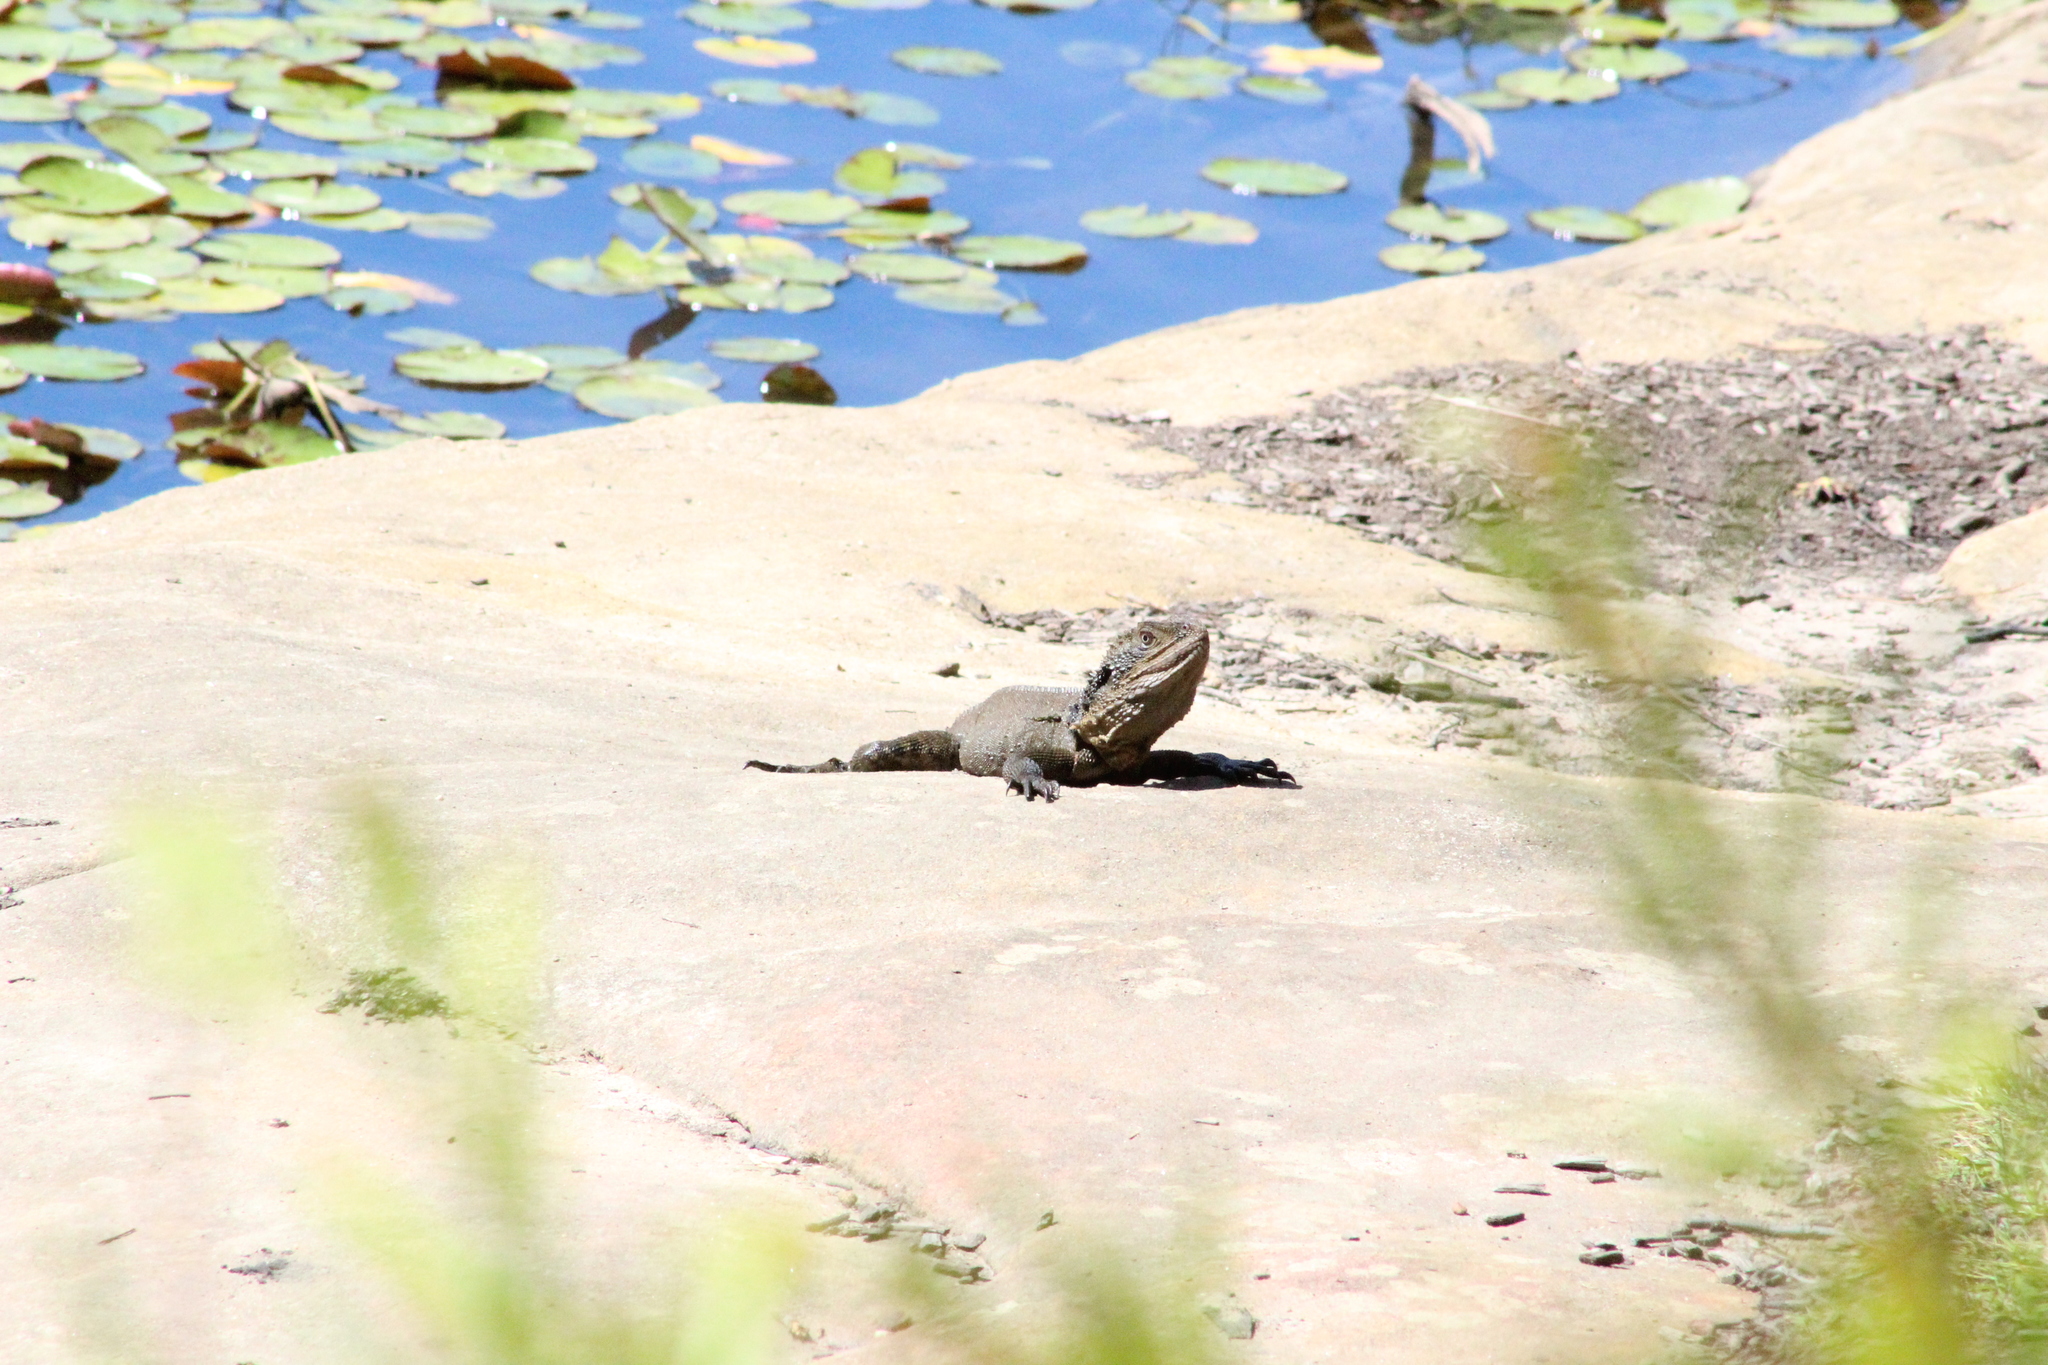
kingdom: Animalia
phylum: Chordata
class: Squamata
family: Agamidae
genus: Intellagama
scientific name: Intellagama lesueurii
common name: Eastern water dragon
